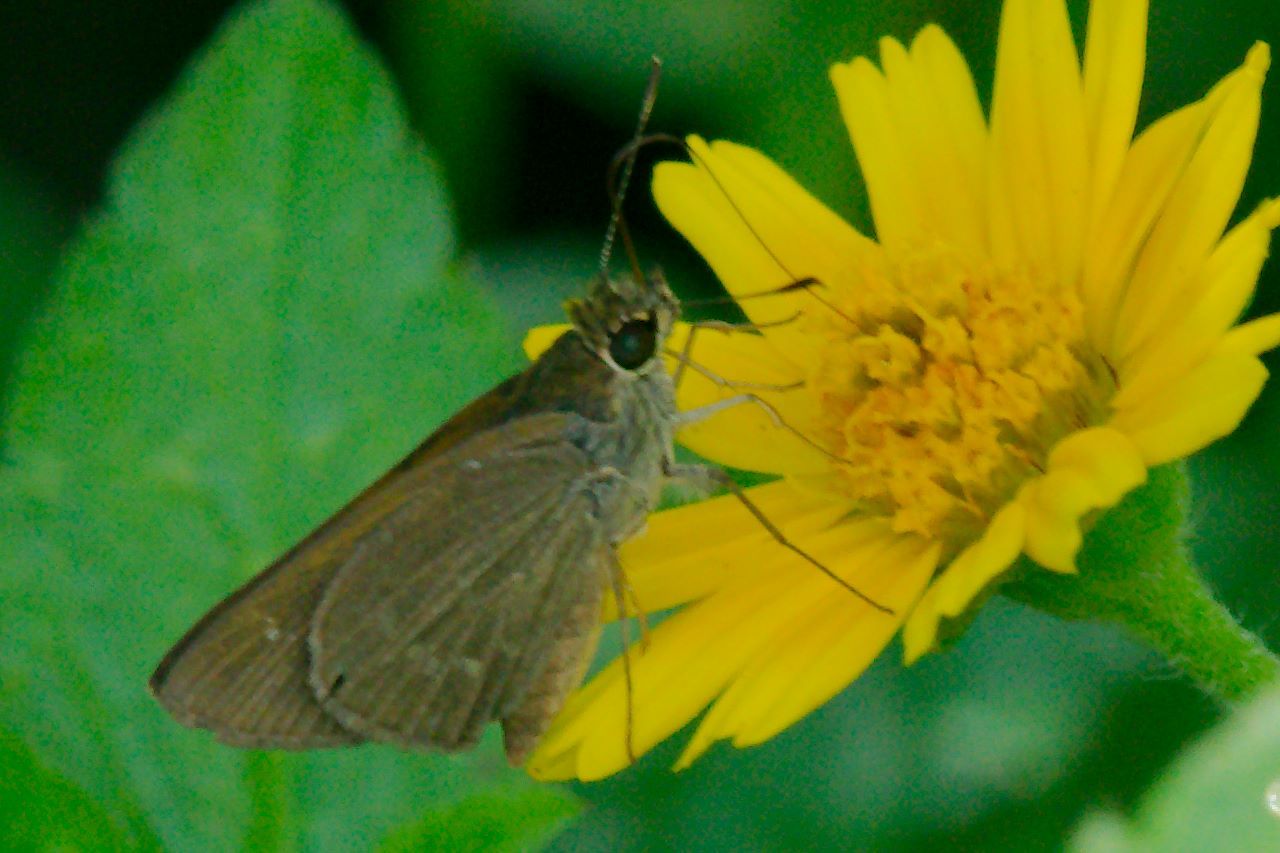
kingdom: Animalia
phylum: Arthropoda
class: Insecta
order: Lepidoptera
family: Hesperiidae
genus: Cymaenes
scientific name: Cymaenes tripunctus
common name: Dingy dotted skipper
